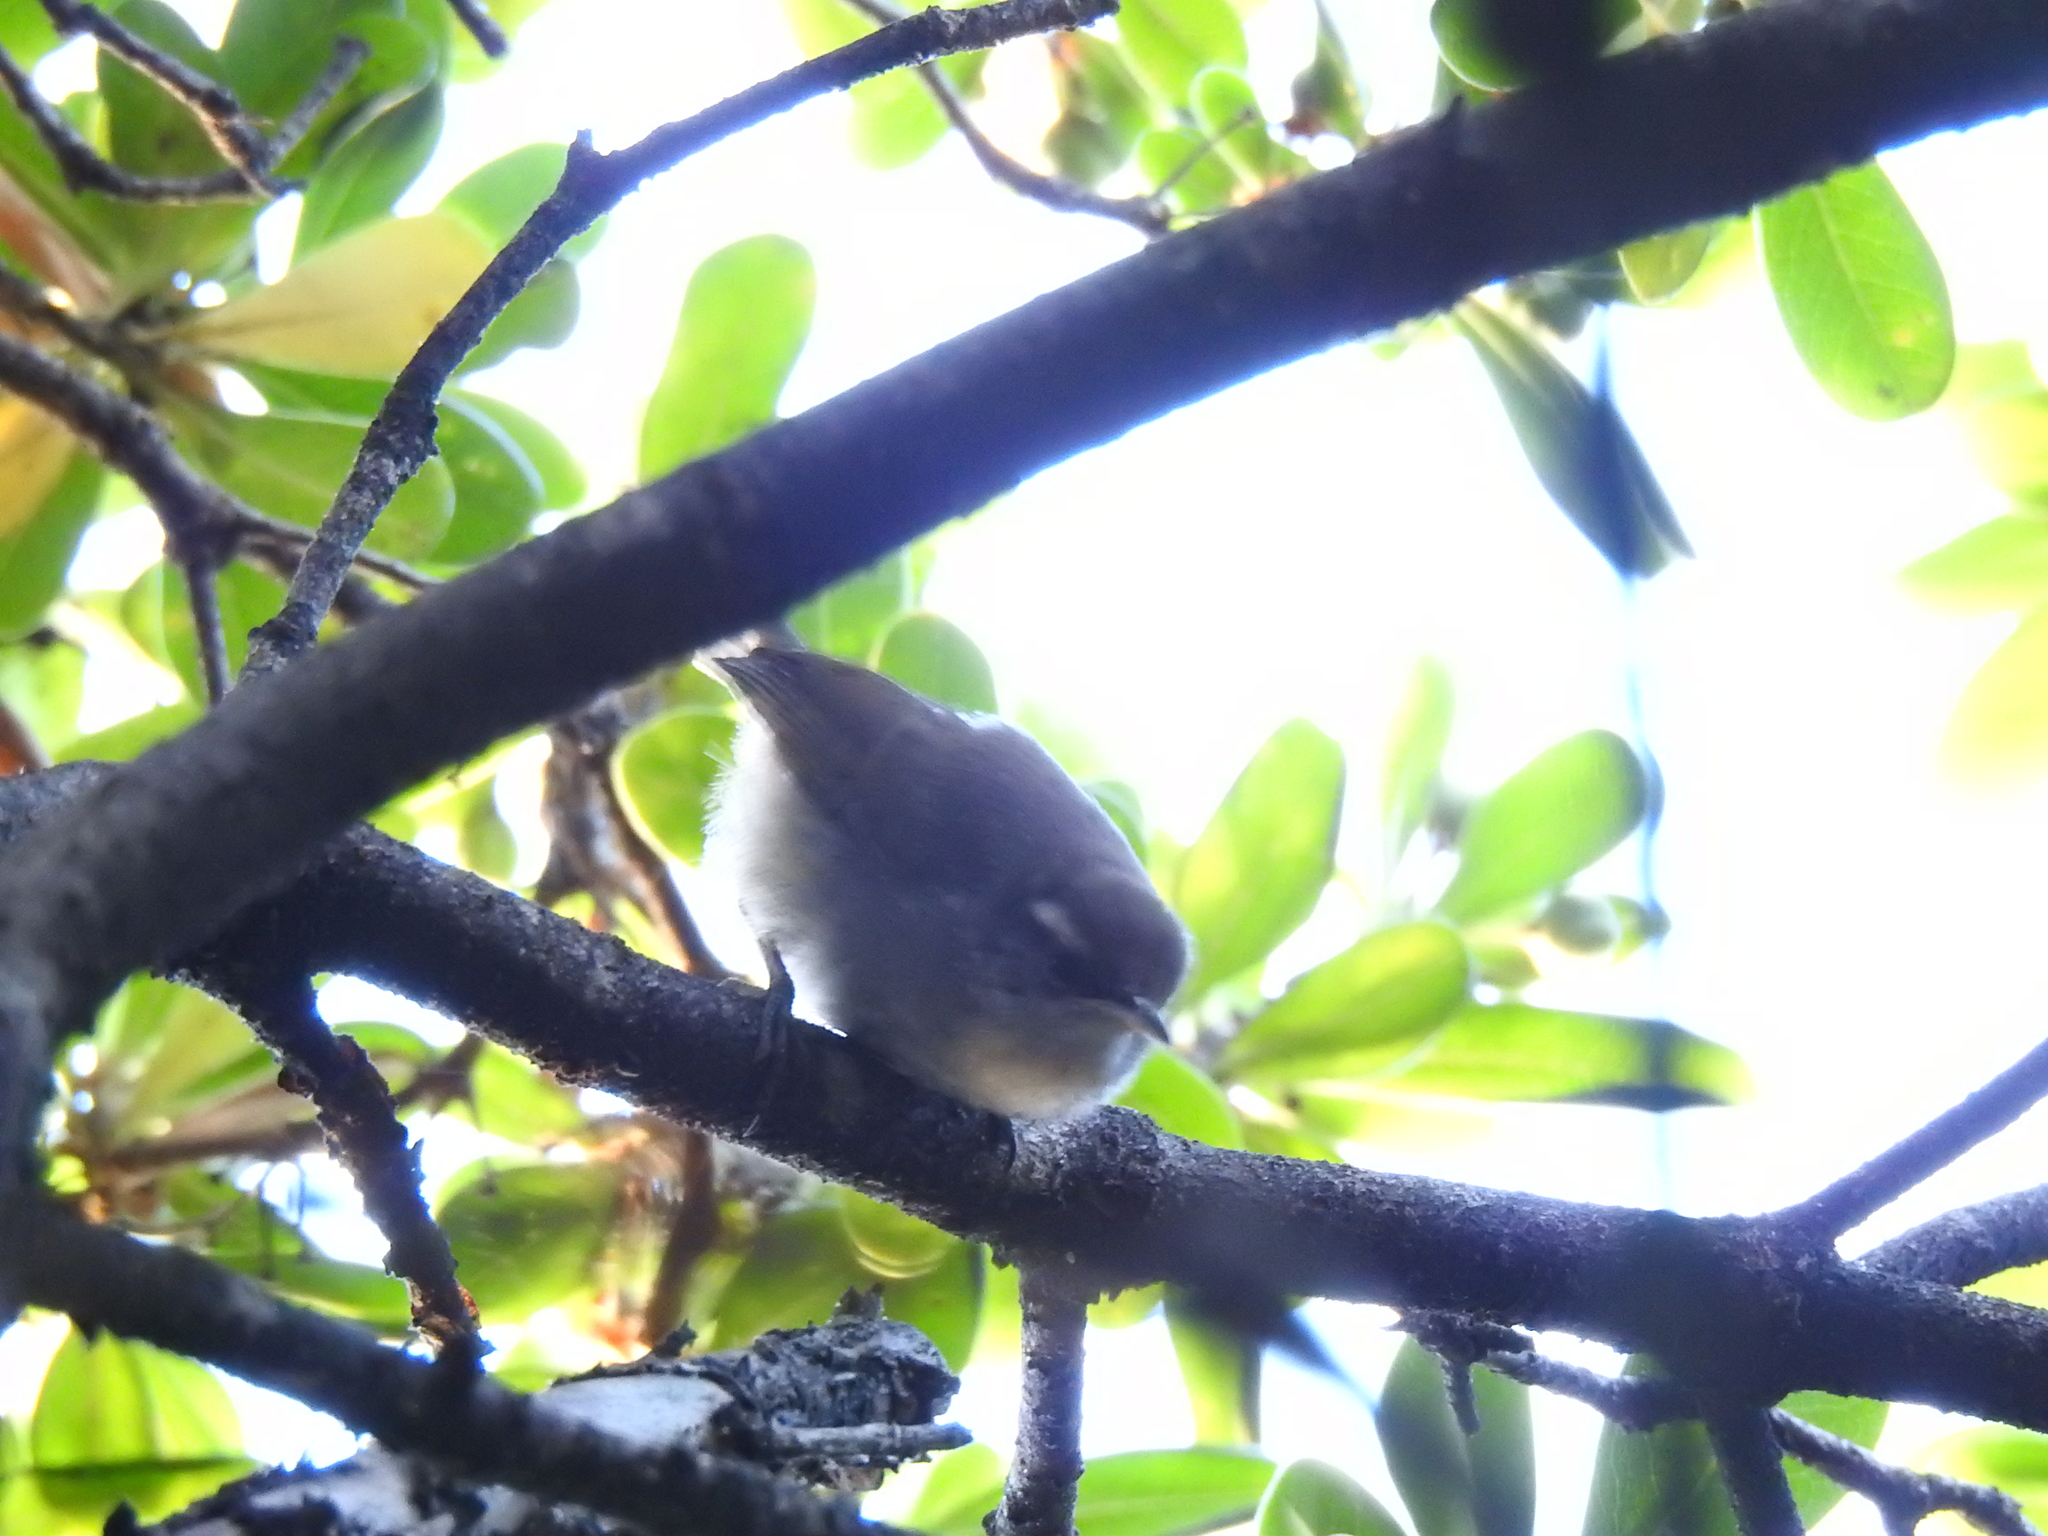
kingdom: Animalia
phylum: Chordata
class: Aves
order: Passeriformes
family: Troglodytidae
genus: Thryomanes
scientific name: Thryomanes bewickii
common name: Bewick's wren
